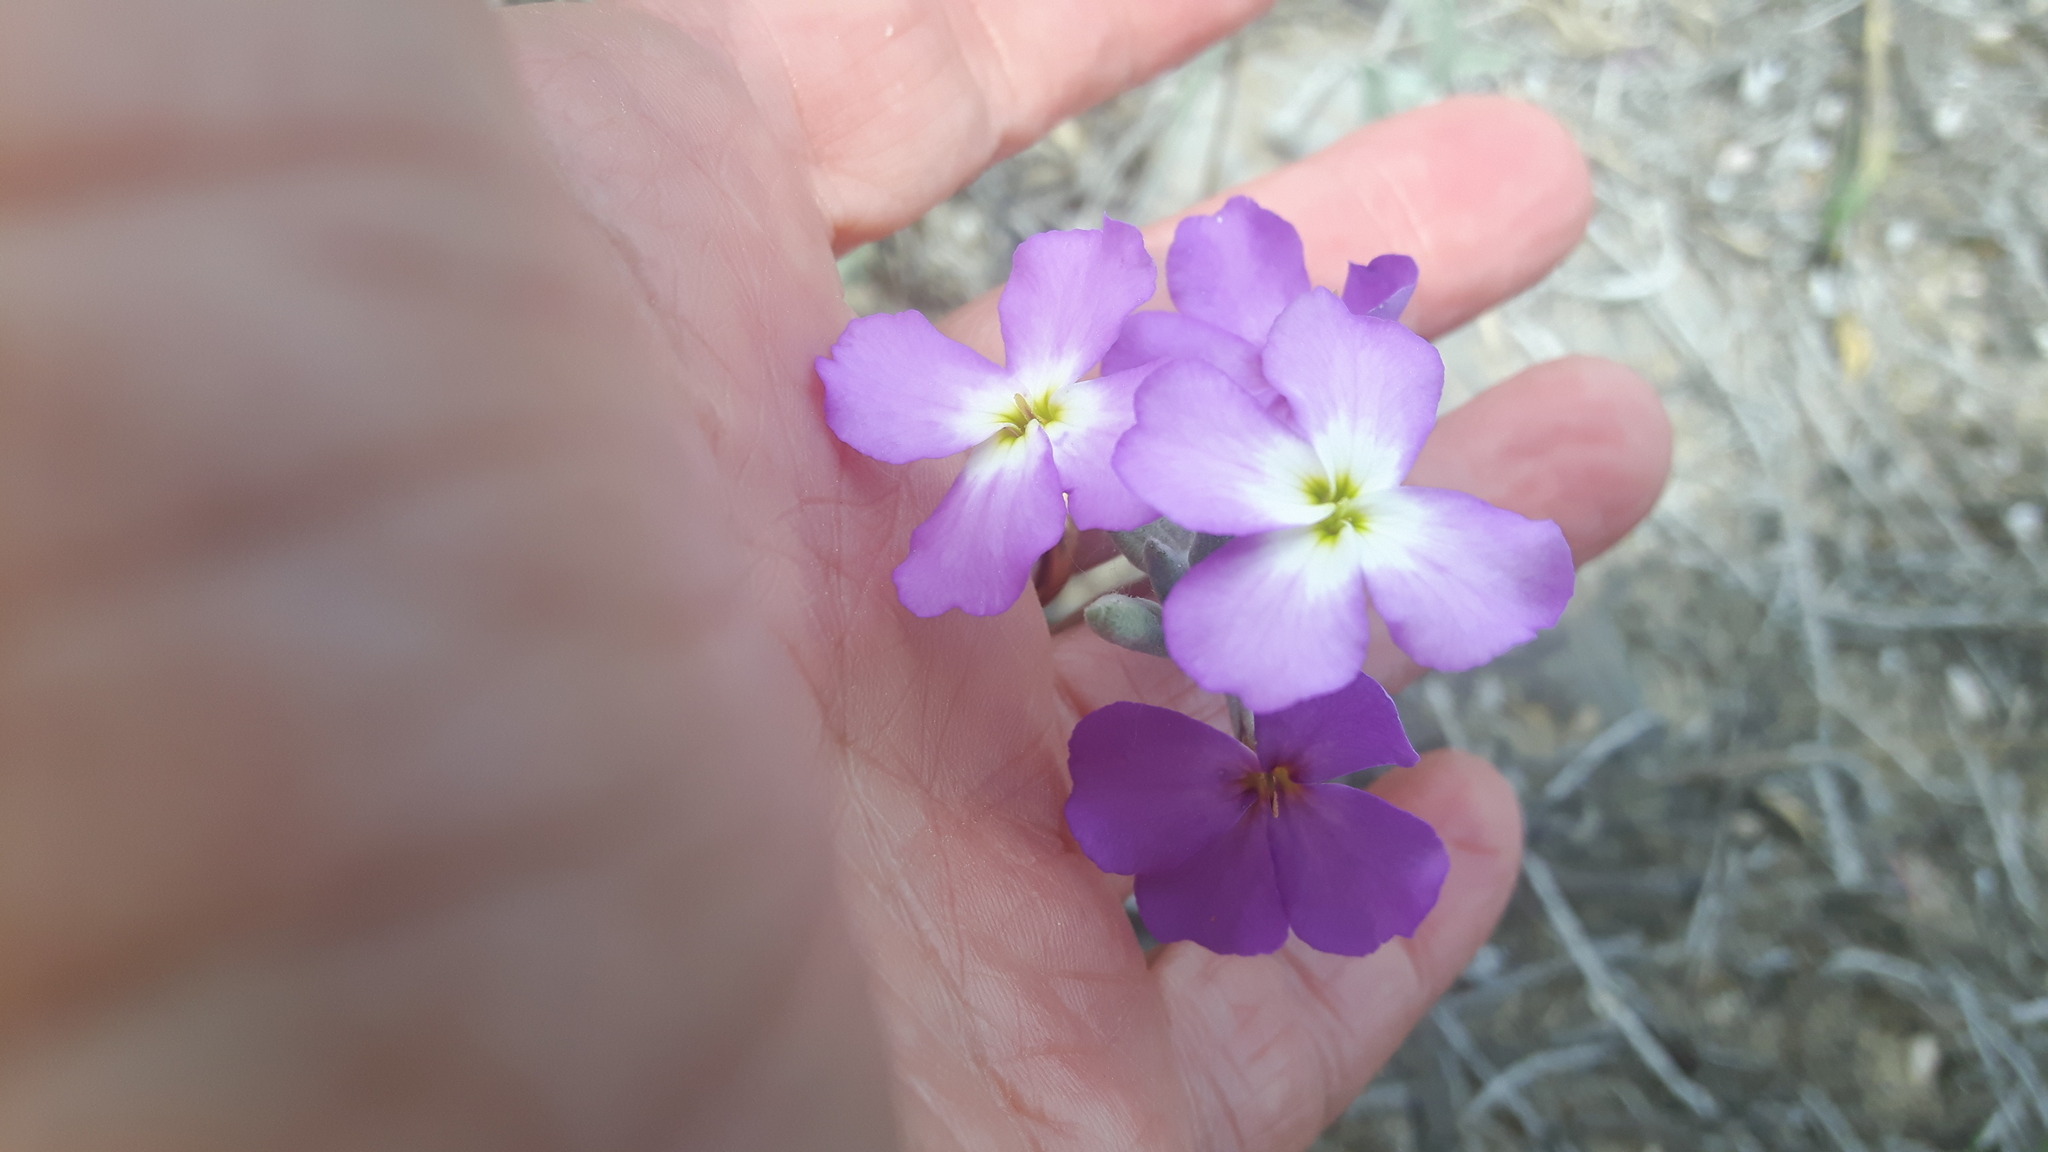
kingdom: Plantae
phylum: Tracheophyta
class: Magnoliopsida
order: Brassicales
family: Brassicaceae
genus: Marcuskochia
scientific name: Marcuskochia littorea
